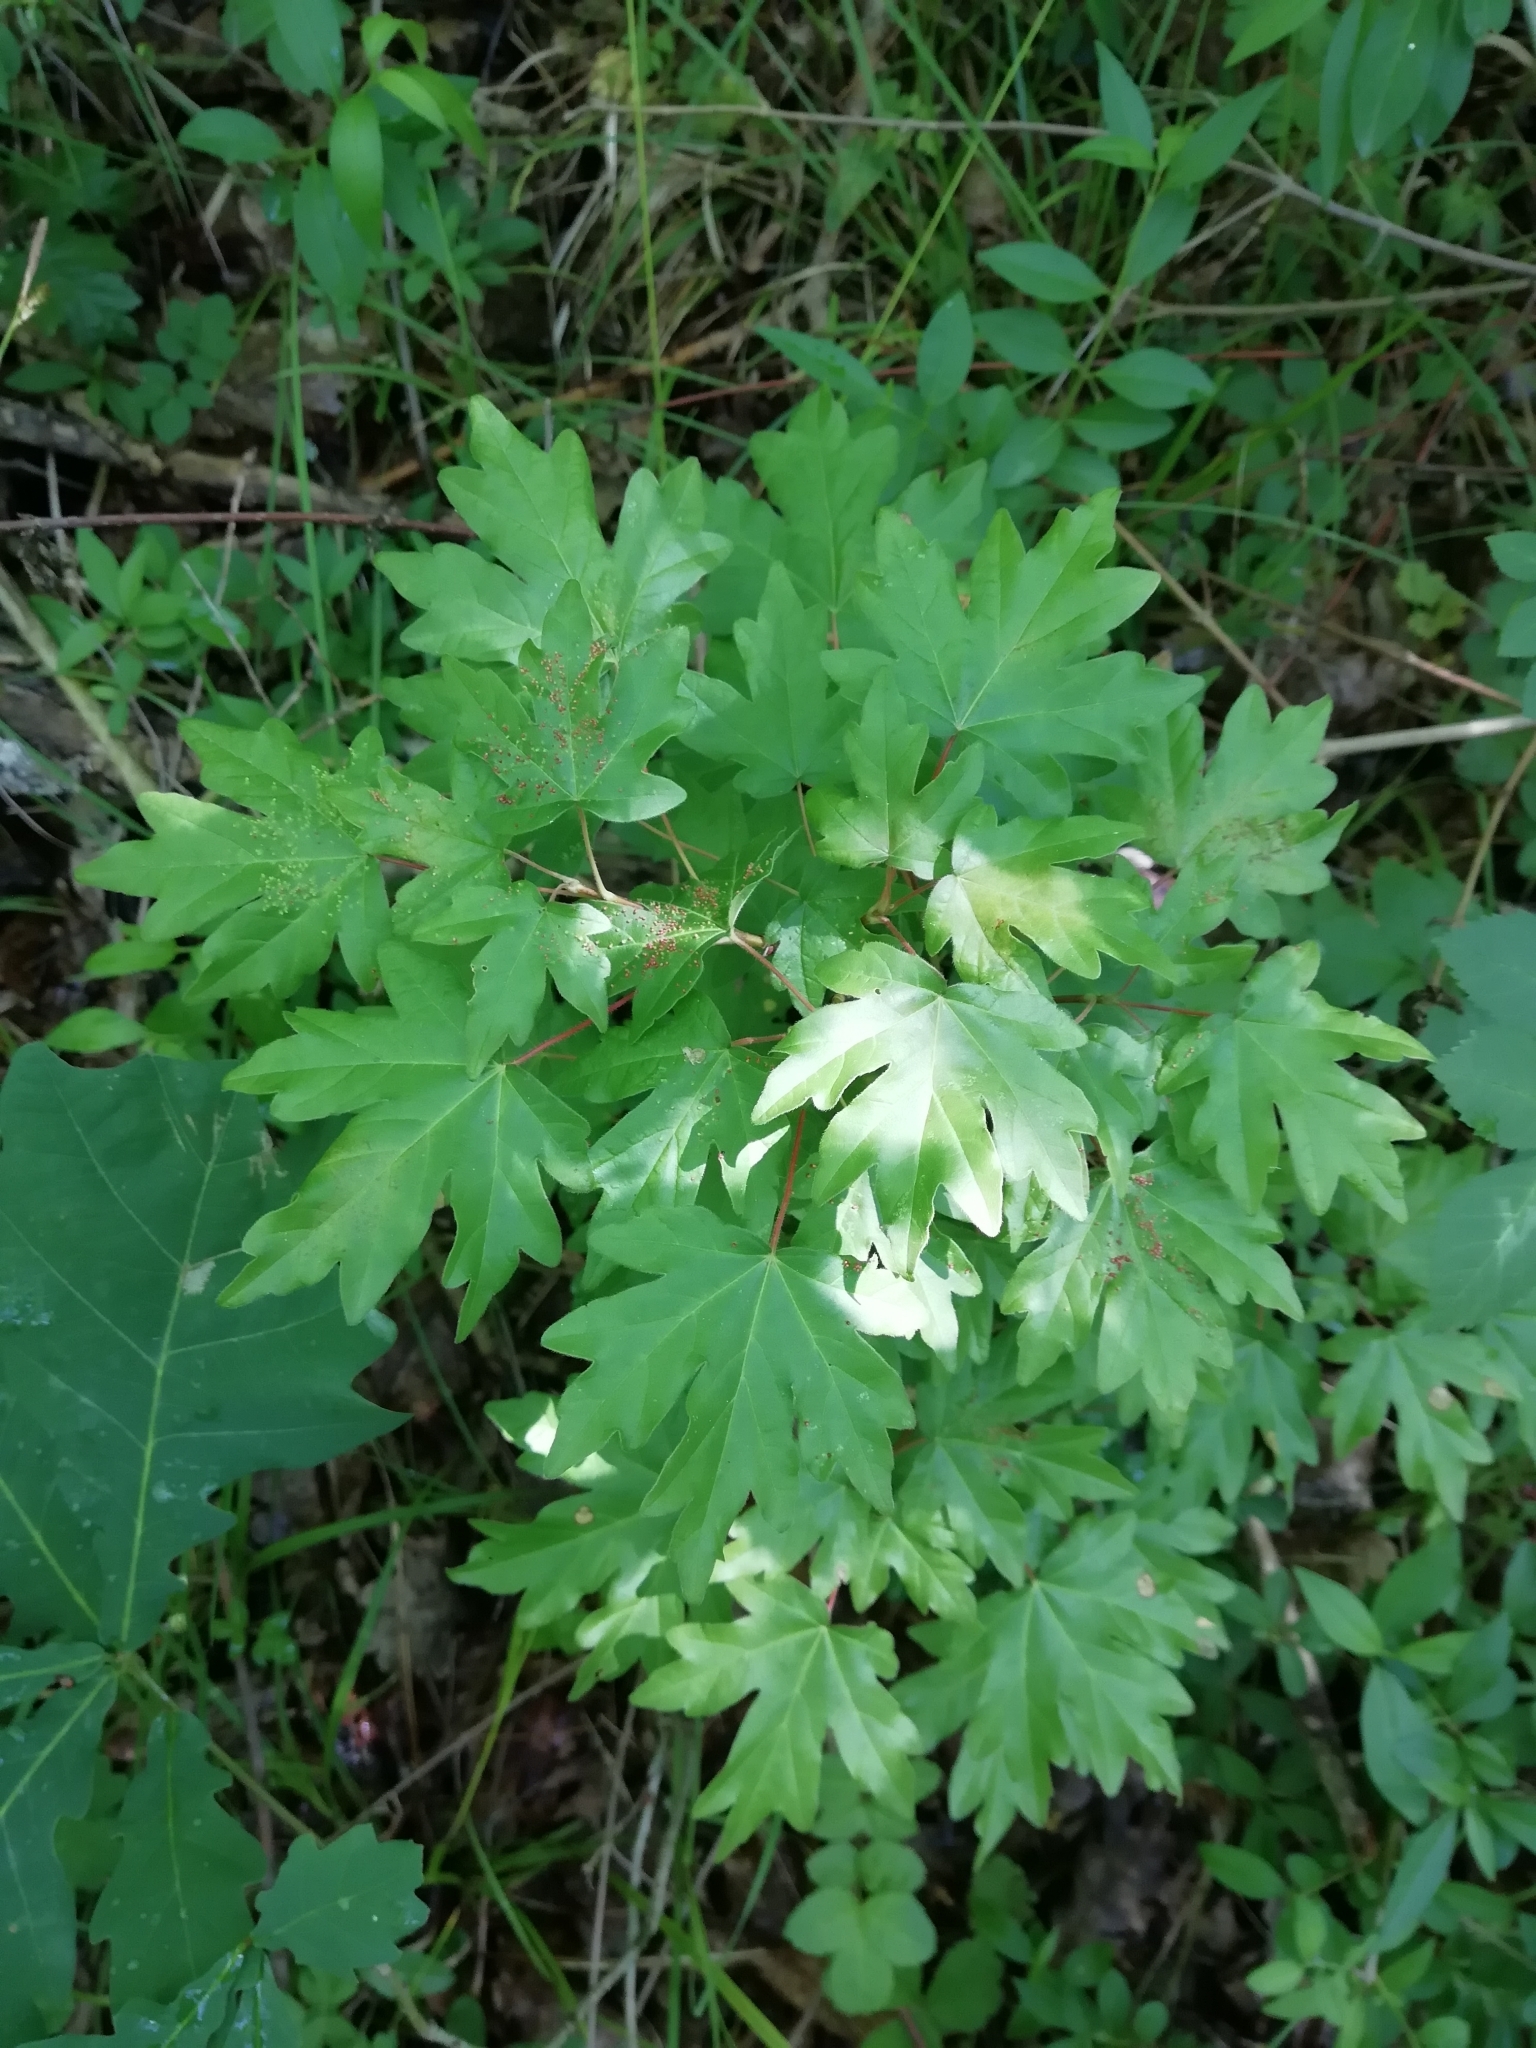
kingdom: Plantae
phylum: Tracheophyta
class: Magnoliopsida
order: Sapindales
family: Sapindaceae
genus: Acer
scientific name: Acer campestre
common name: Field maple
